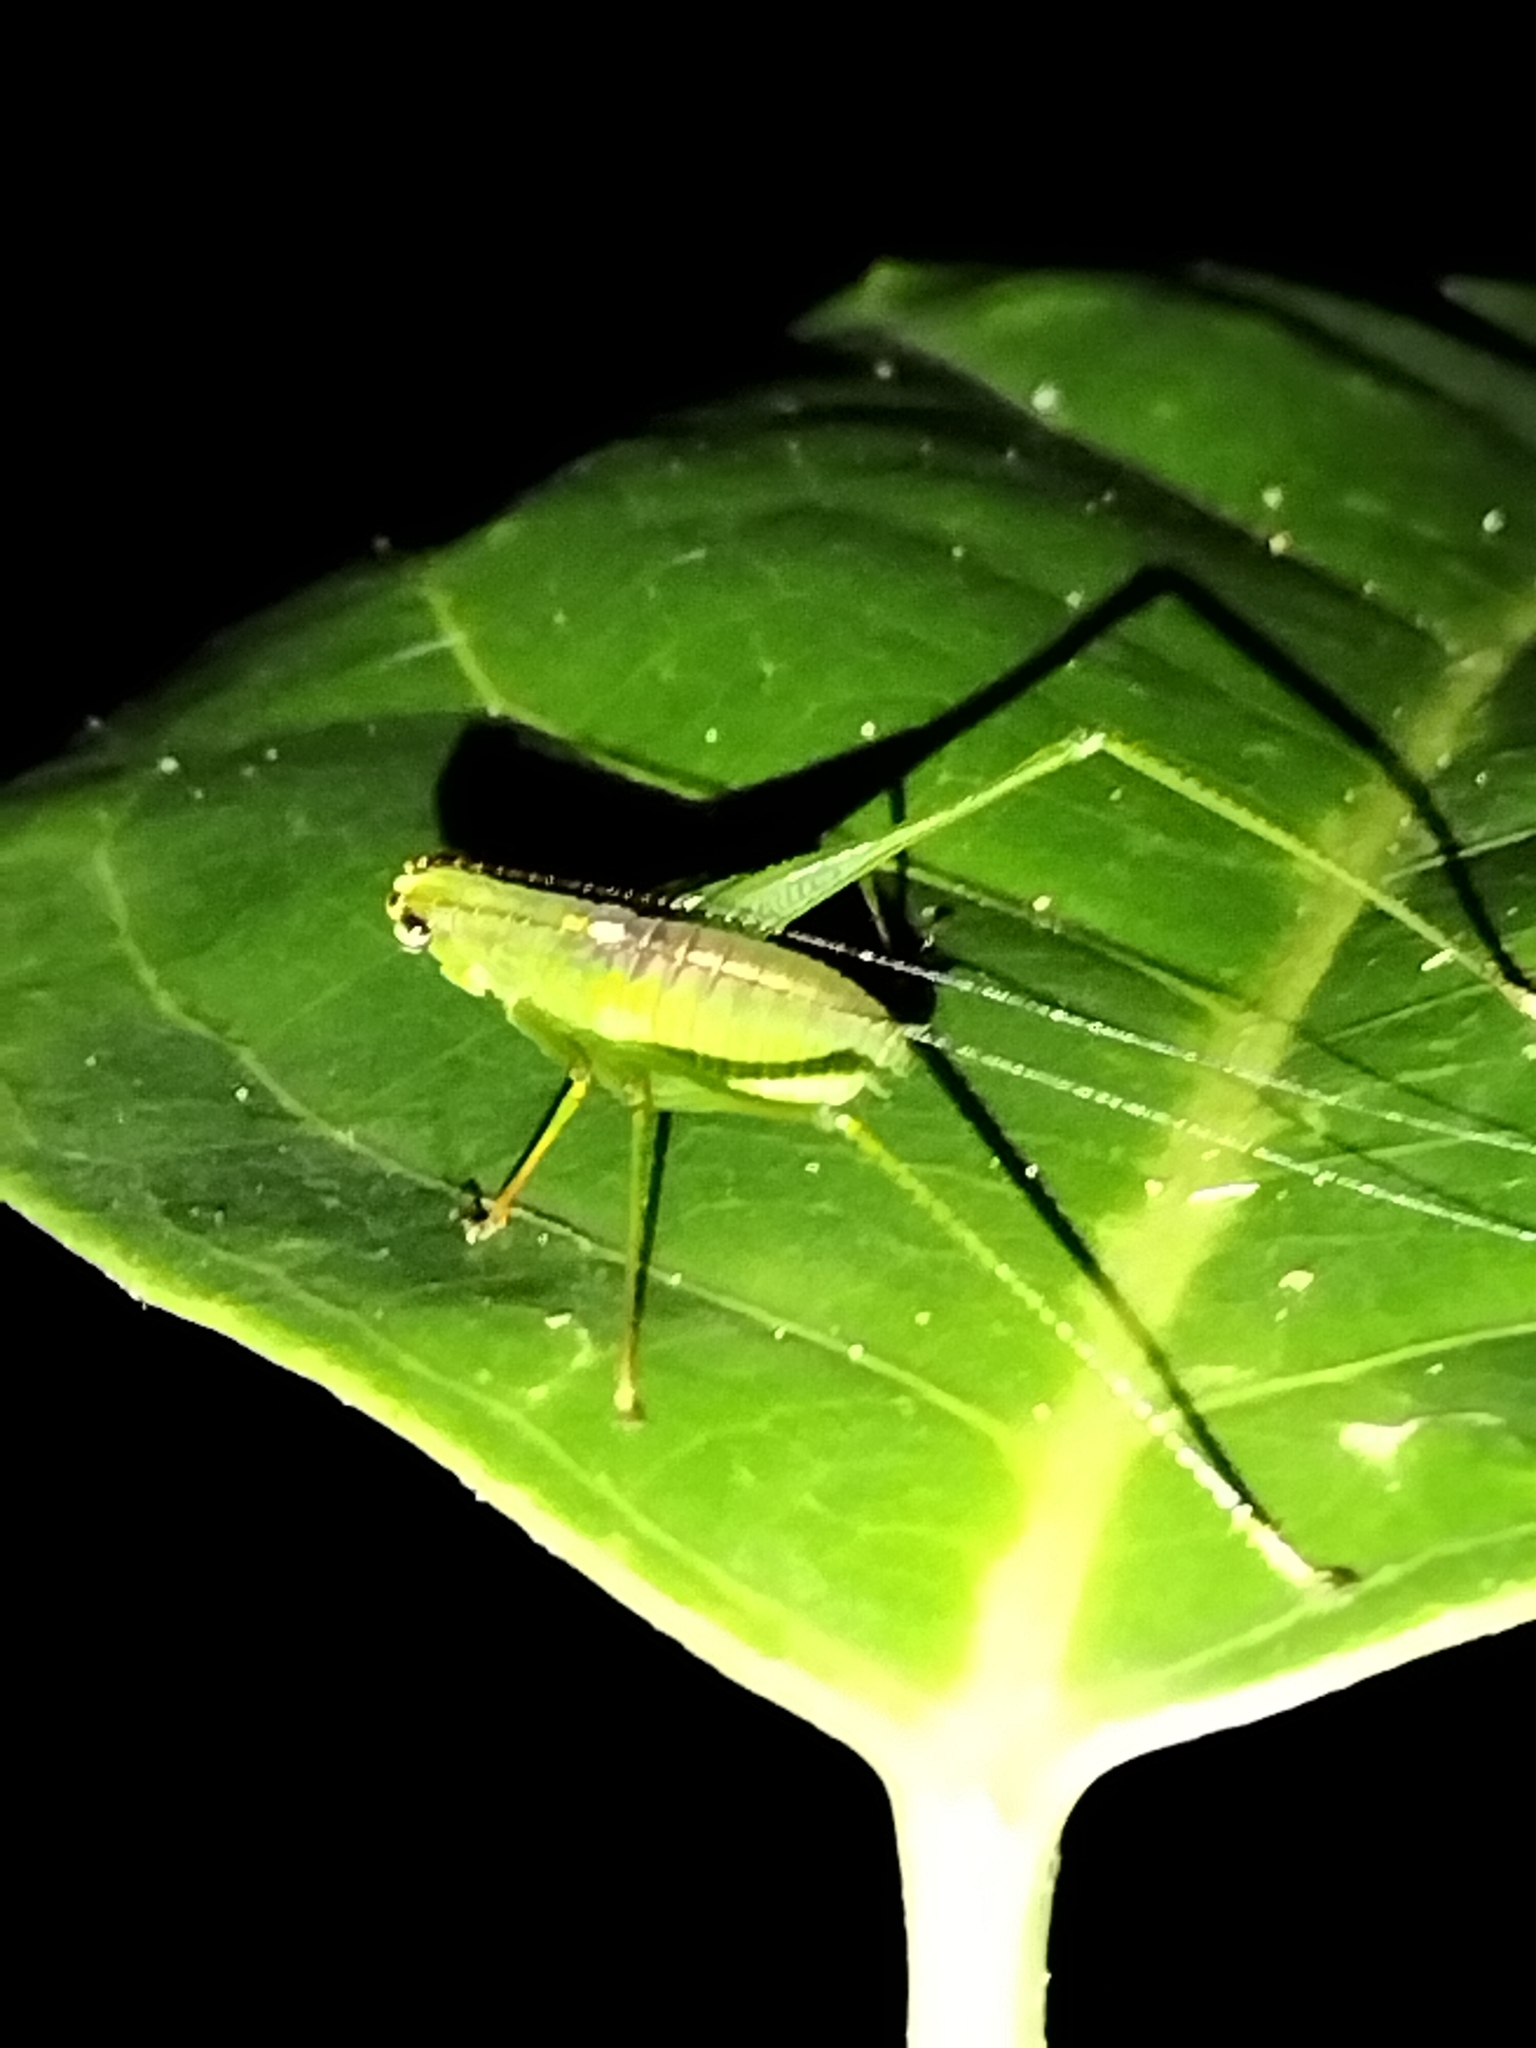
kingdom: Animalia
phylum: Arthropoda
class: Insecta
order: Orthoptera
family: Tettigoniidae
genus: Leucopodoptera
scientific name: Leucopodoptera eumundii
